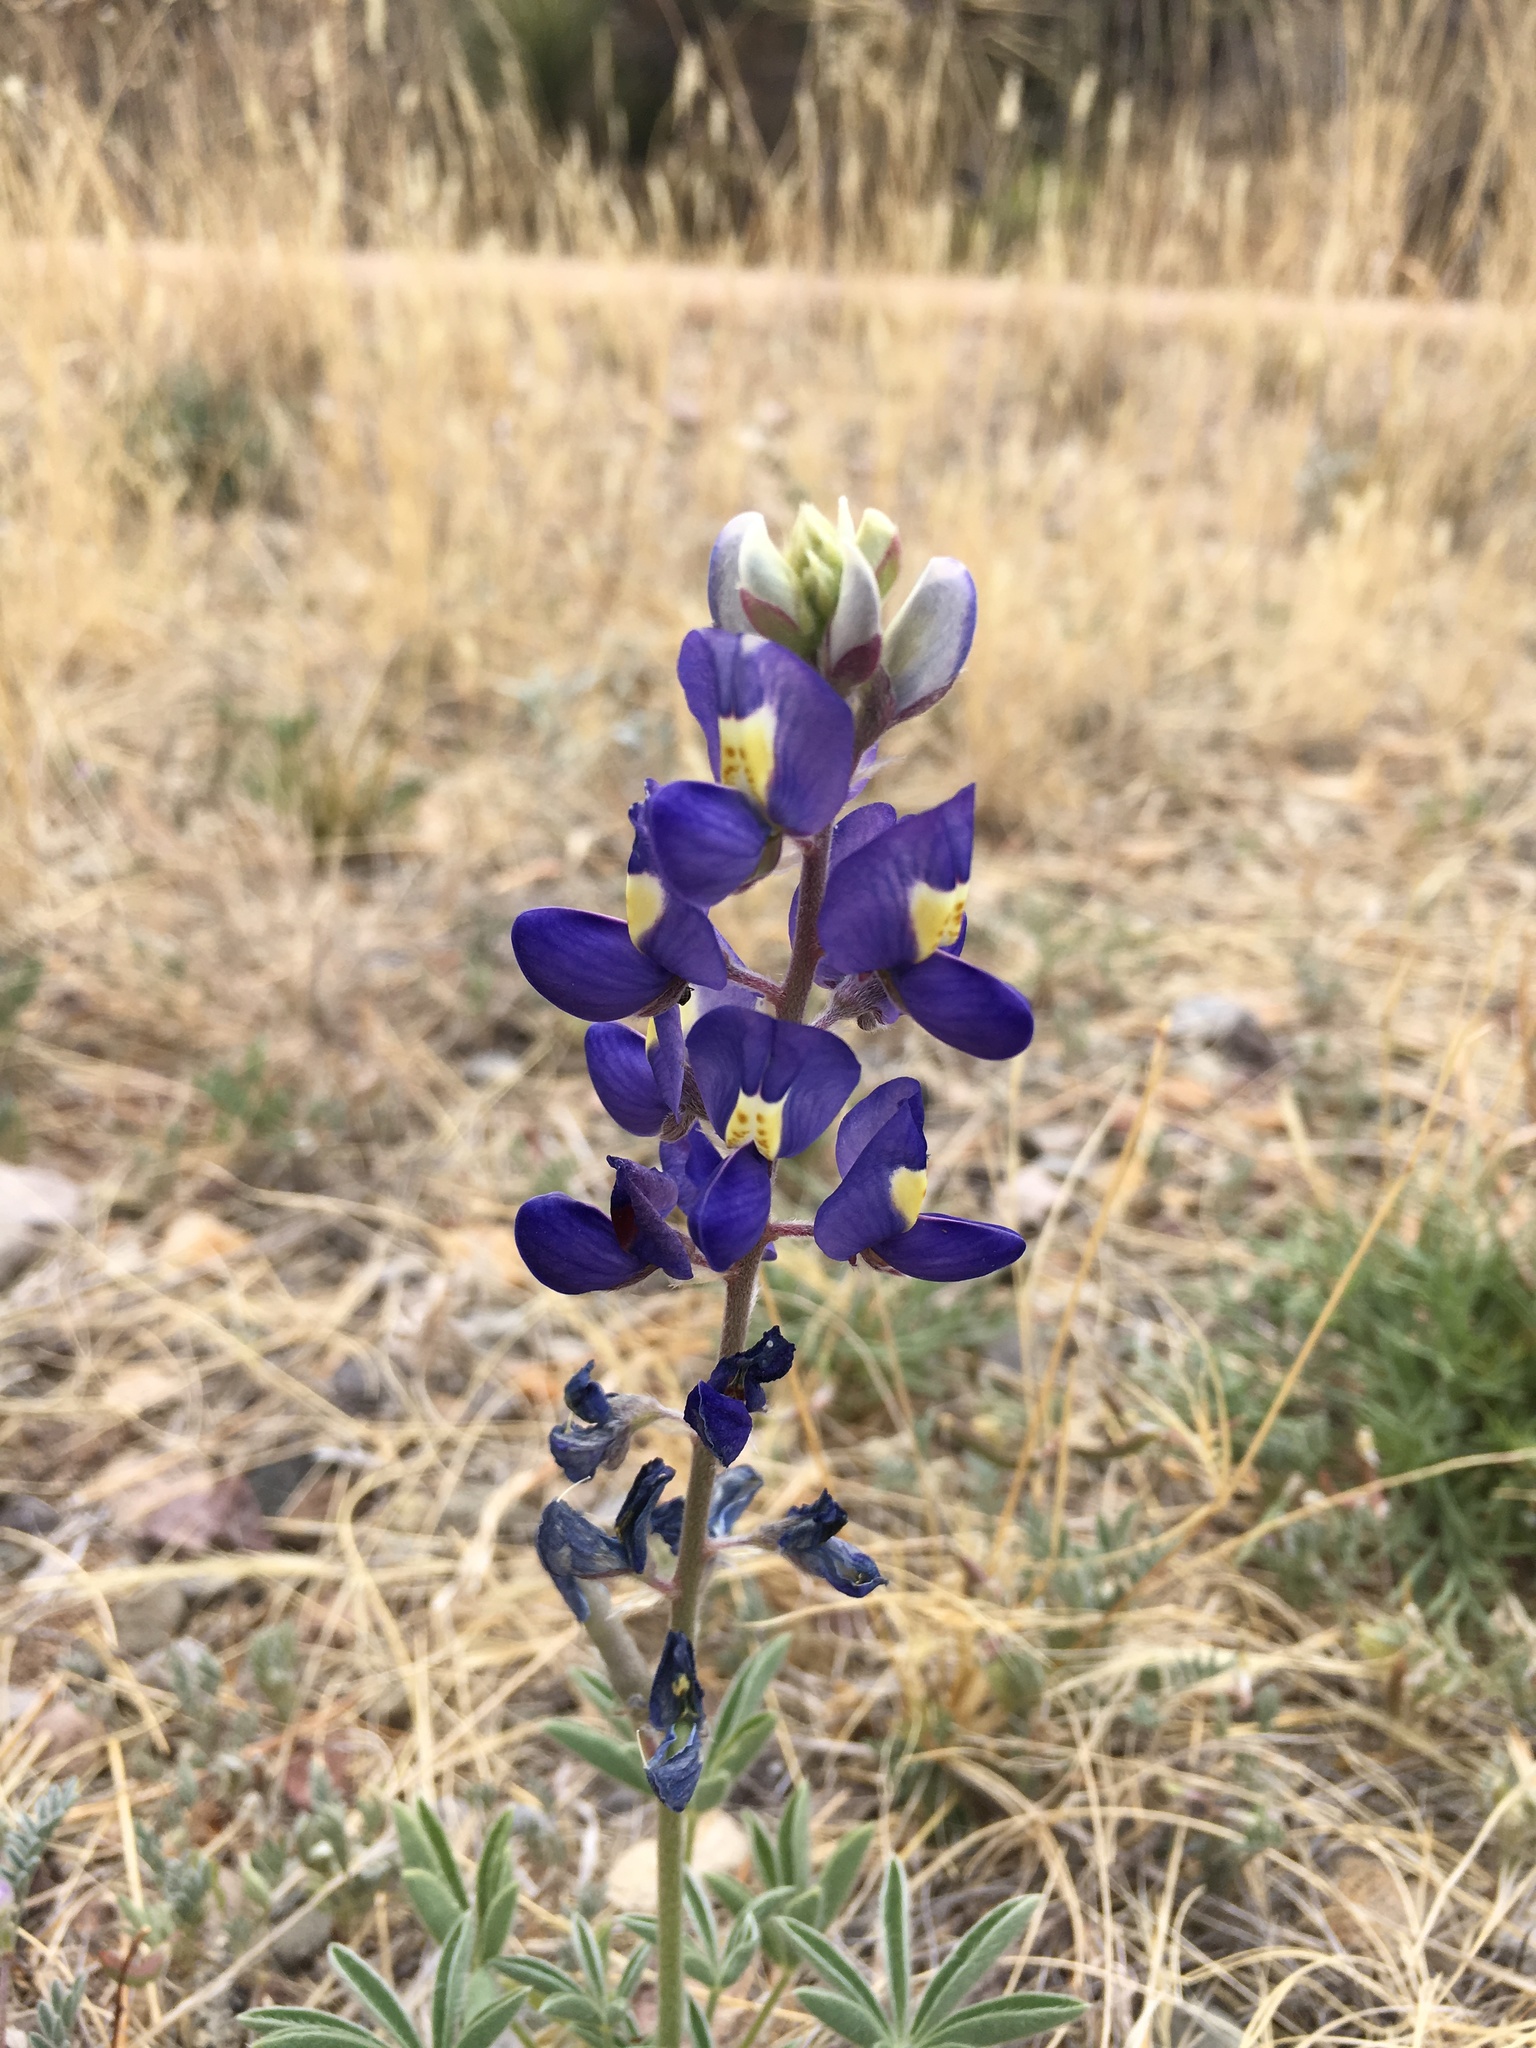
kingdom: Plantae
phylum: Tracheophyta
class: Magnoliopsida
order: Fabales
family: Fabaceae
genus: Lupinus
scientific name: Lupinus havardii
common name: Chisos bluebonnet
